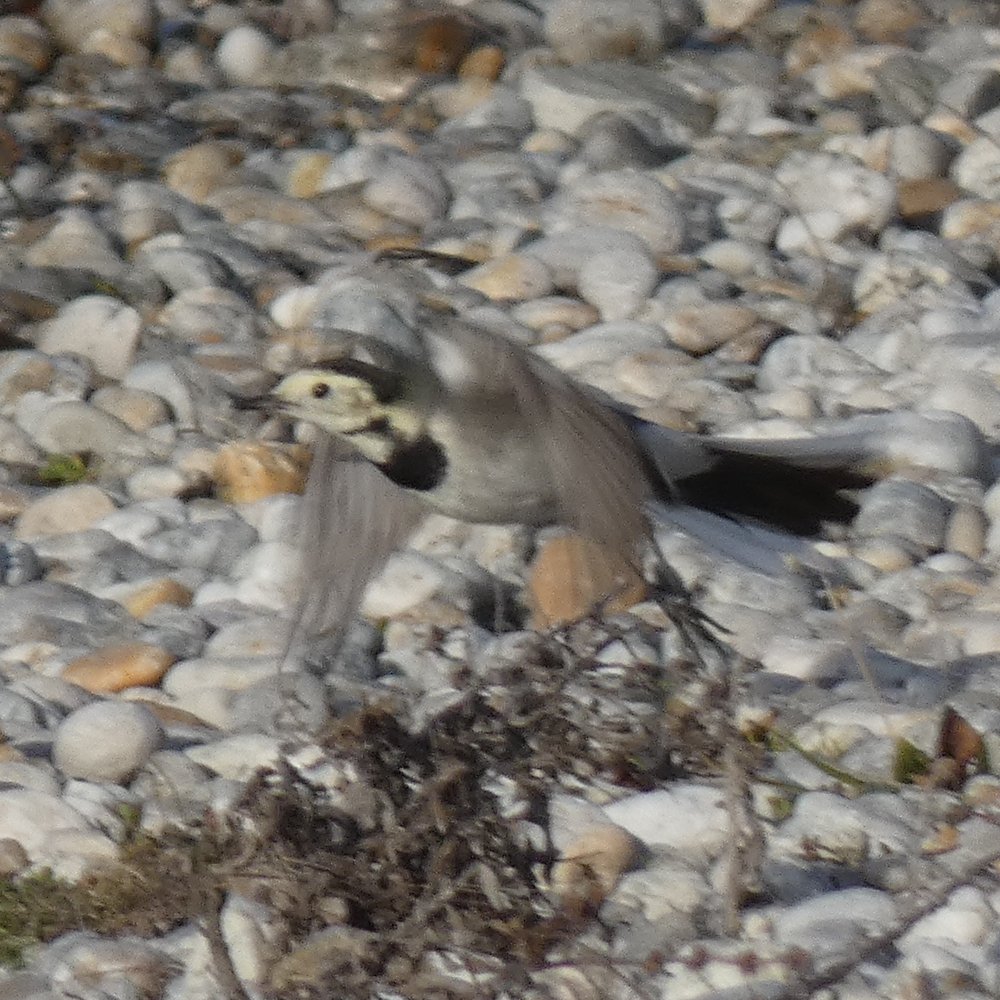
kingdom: Animalia
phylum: Chordata
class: Aves
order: Passeriformes
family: Motacillidae
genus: Motacilla
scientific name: Motacilla alba
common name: White wagtail
